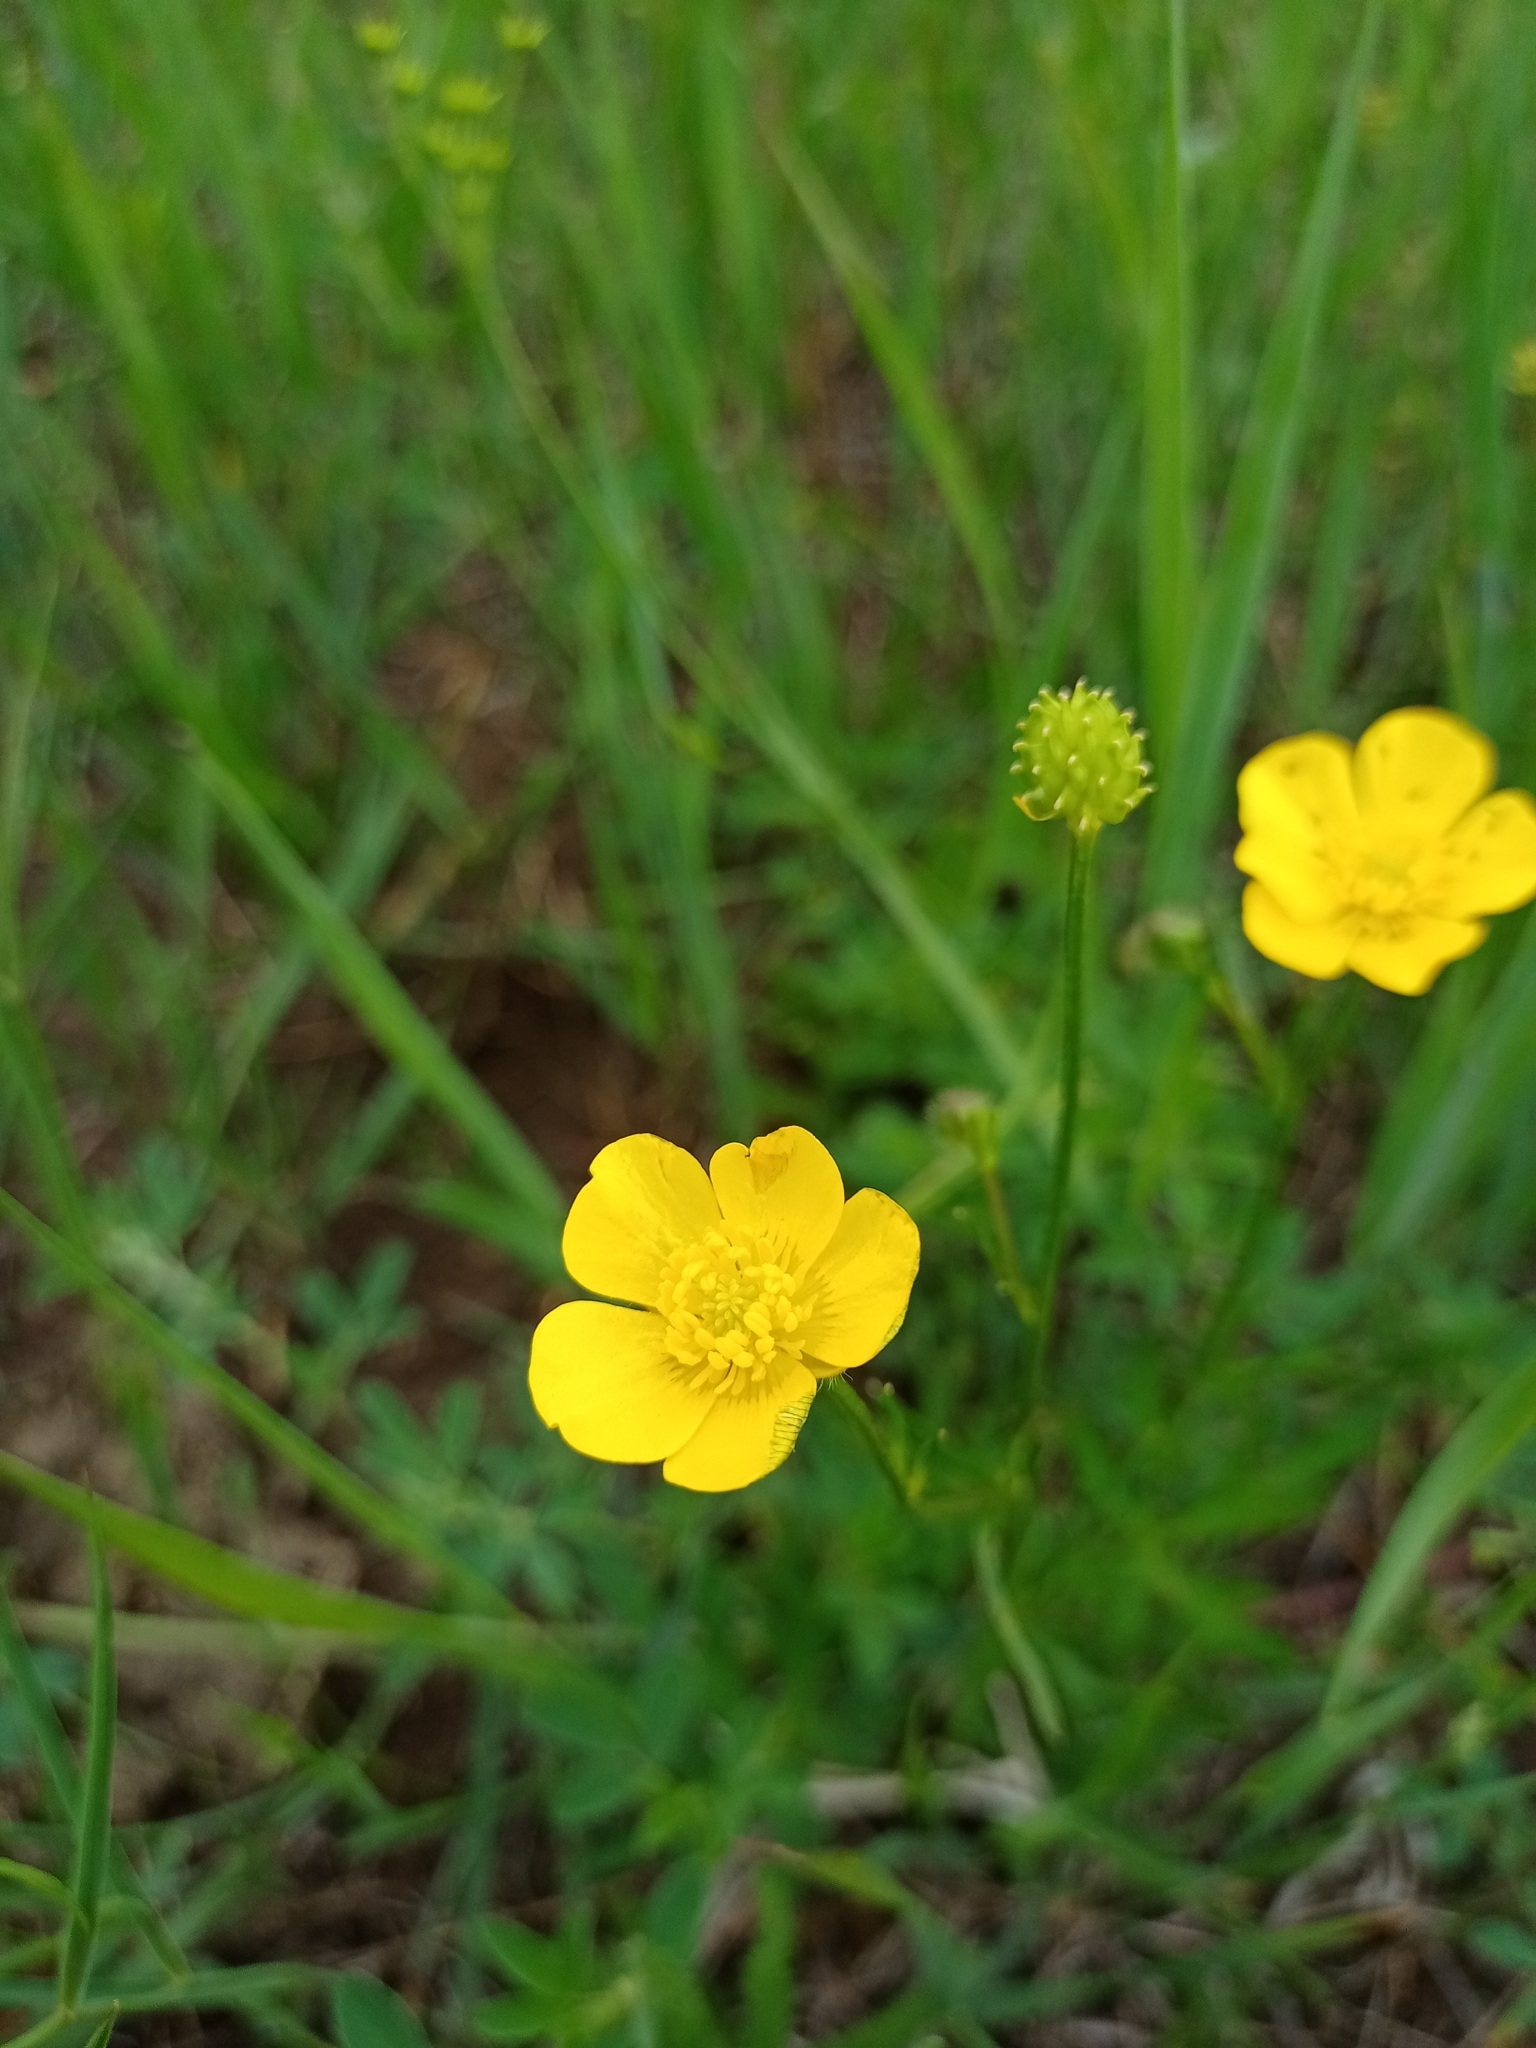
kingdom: Plantae
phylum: Tracheophyta
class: Magnoliopsida
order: Ranunculales
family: Ranunculaceae
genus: Ranunculus
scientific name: Ranunculus polyanthemos
